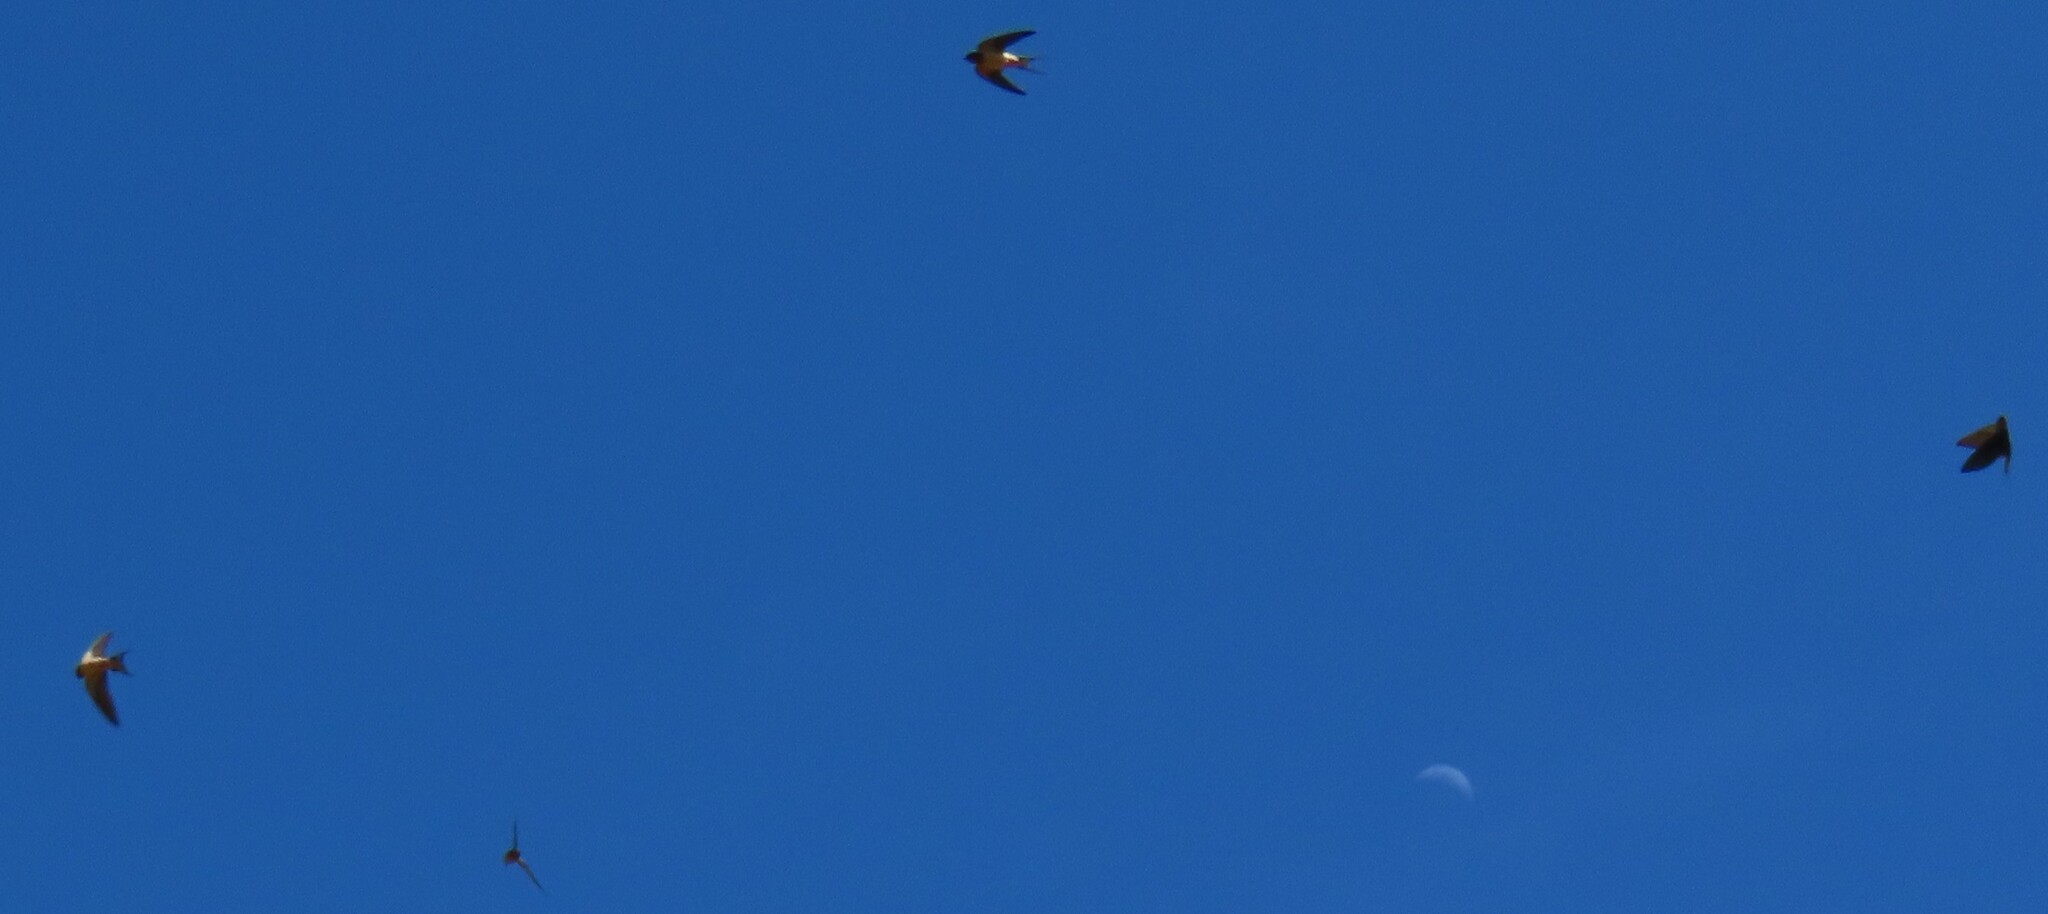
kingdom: Animalia
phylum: Chordata
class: Aves
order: Passeriformes
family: Hirundinidae
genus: Hirundo
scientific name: Hirundo rustica
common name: Barn swallow
